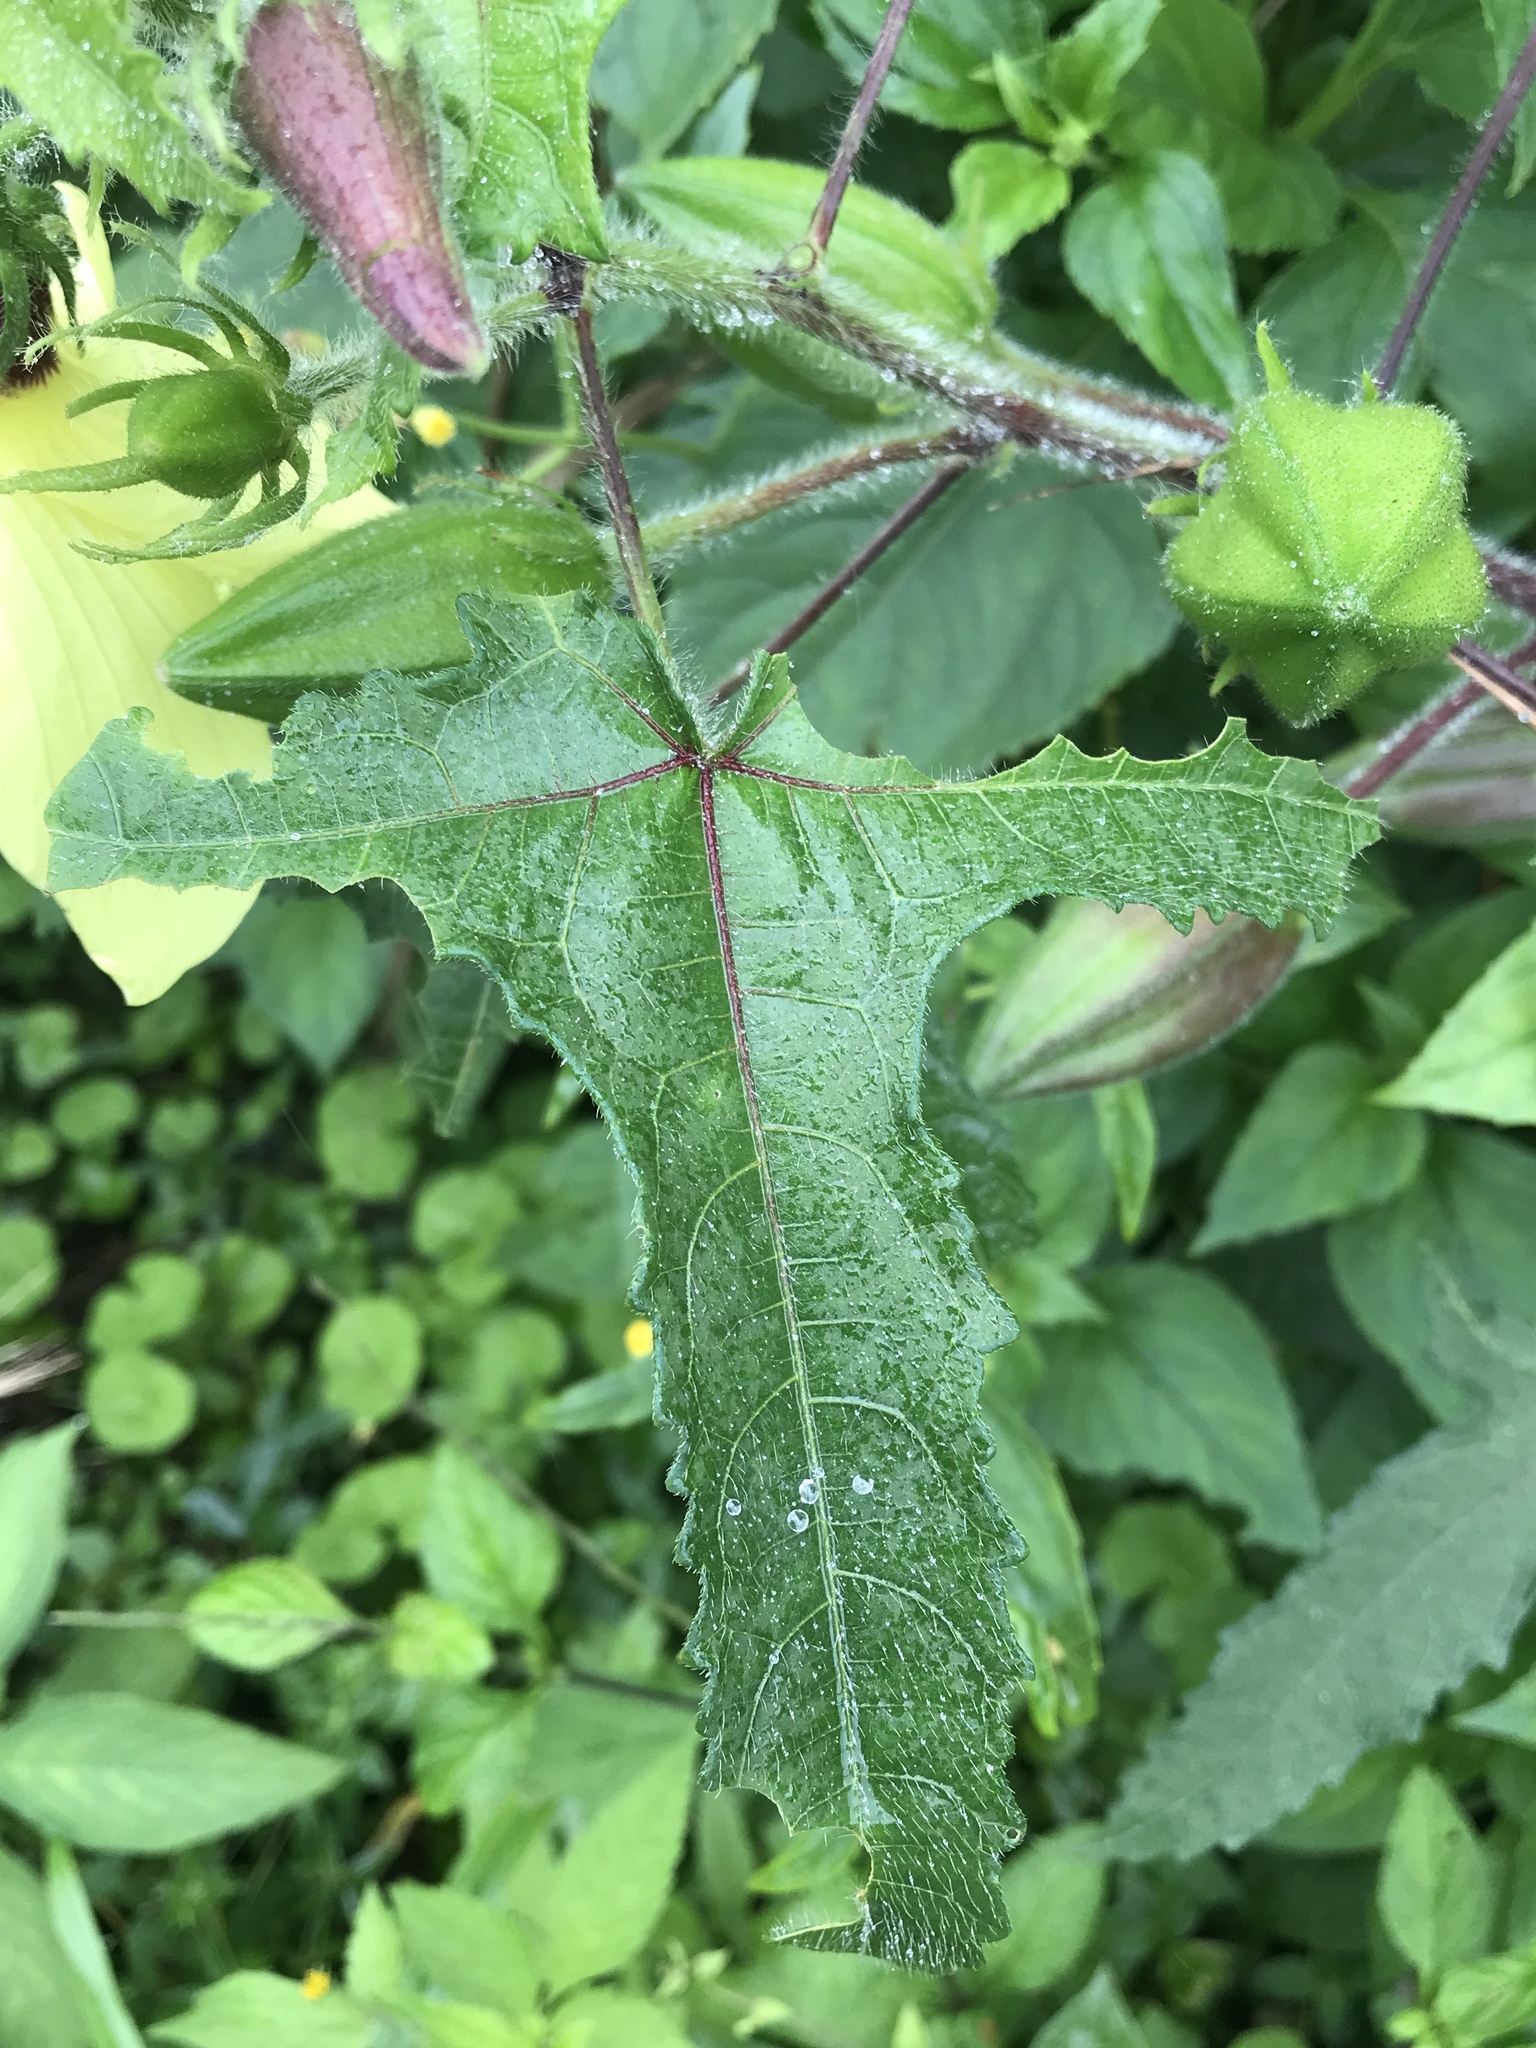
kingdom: Plantae
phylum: Tracheophyta
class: Magnoliopsida
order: Malvales
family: Malvaceae
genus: Abelmoschus
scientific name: Abelmoschus moschatus
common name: Musk okra
